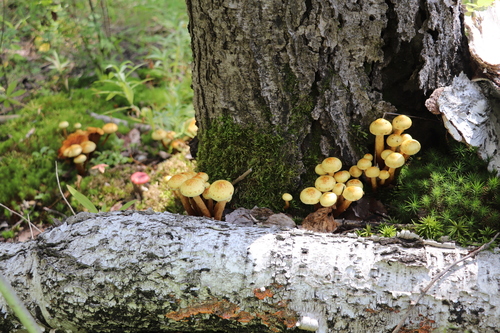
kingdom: Fungi
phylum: Basidiomycota
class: Agaricomycetes
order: Agaricales
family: Hymenogastraceae
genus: Flammula
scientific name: Flammula alnicola
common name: Alder scalycap
